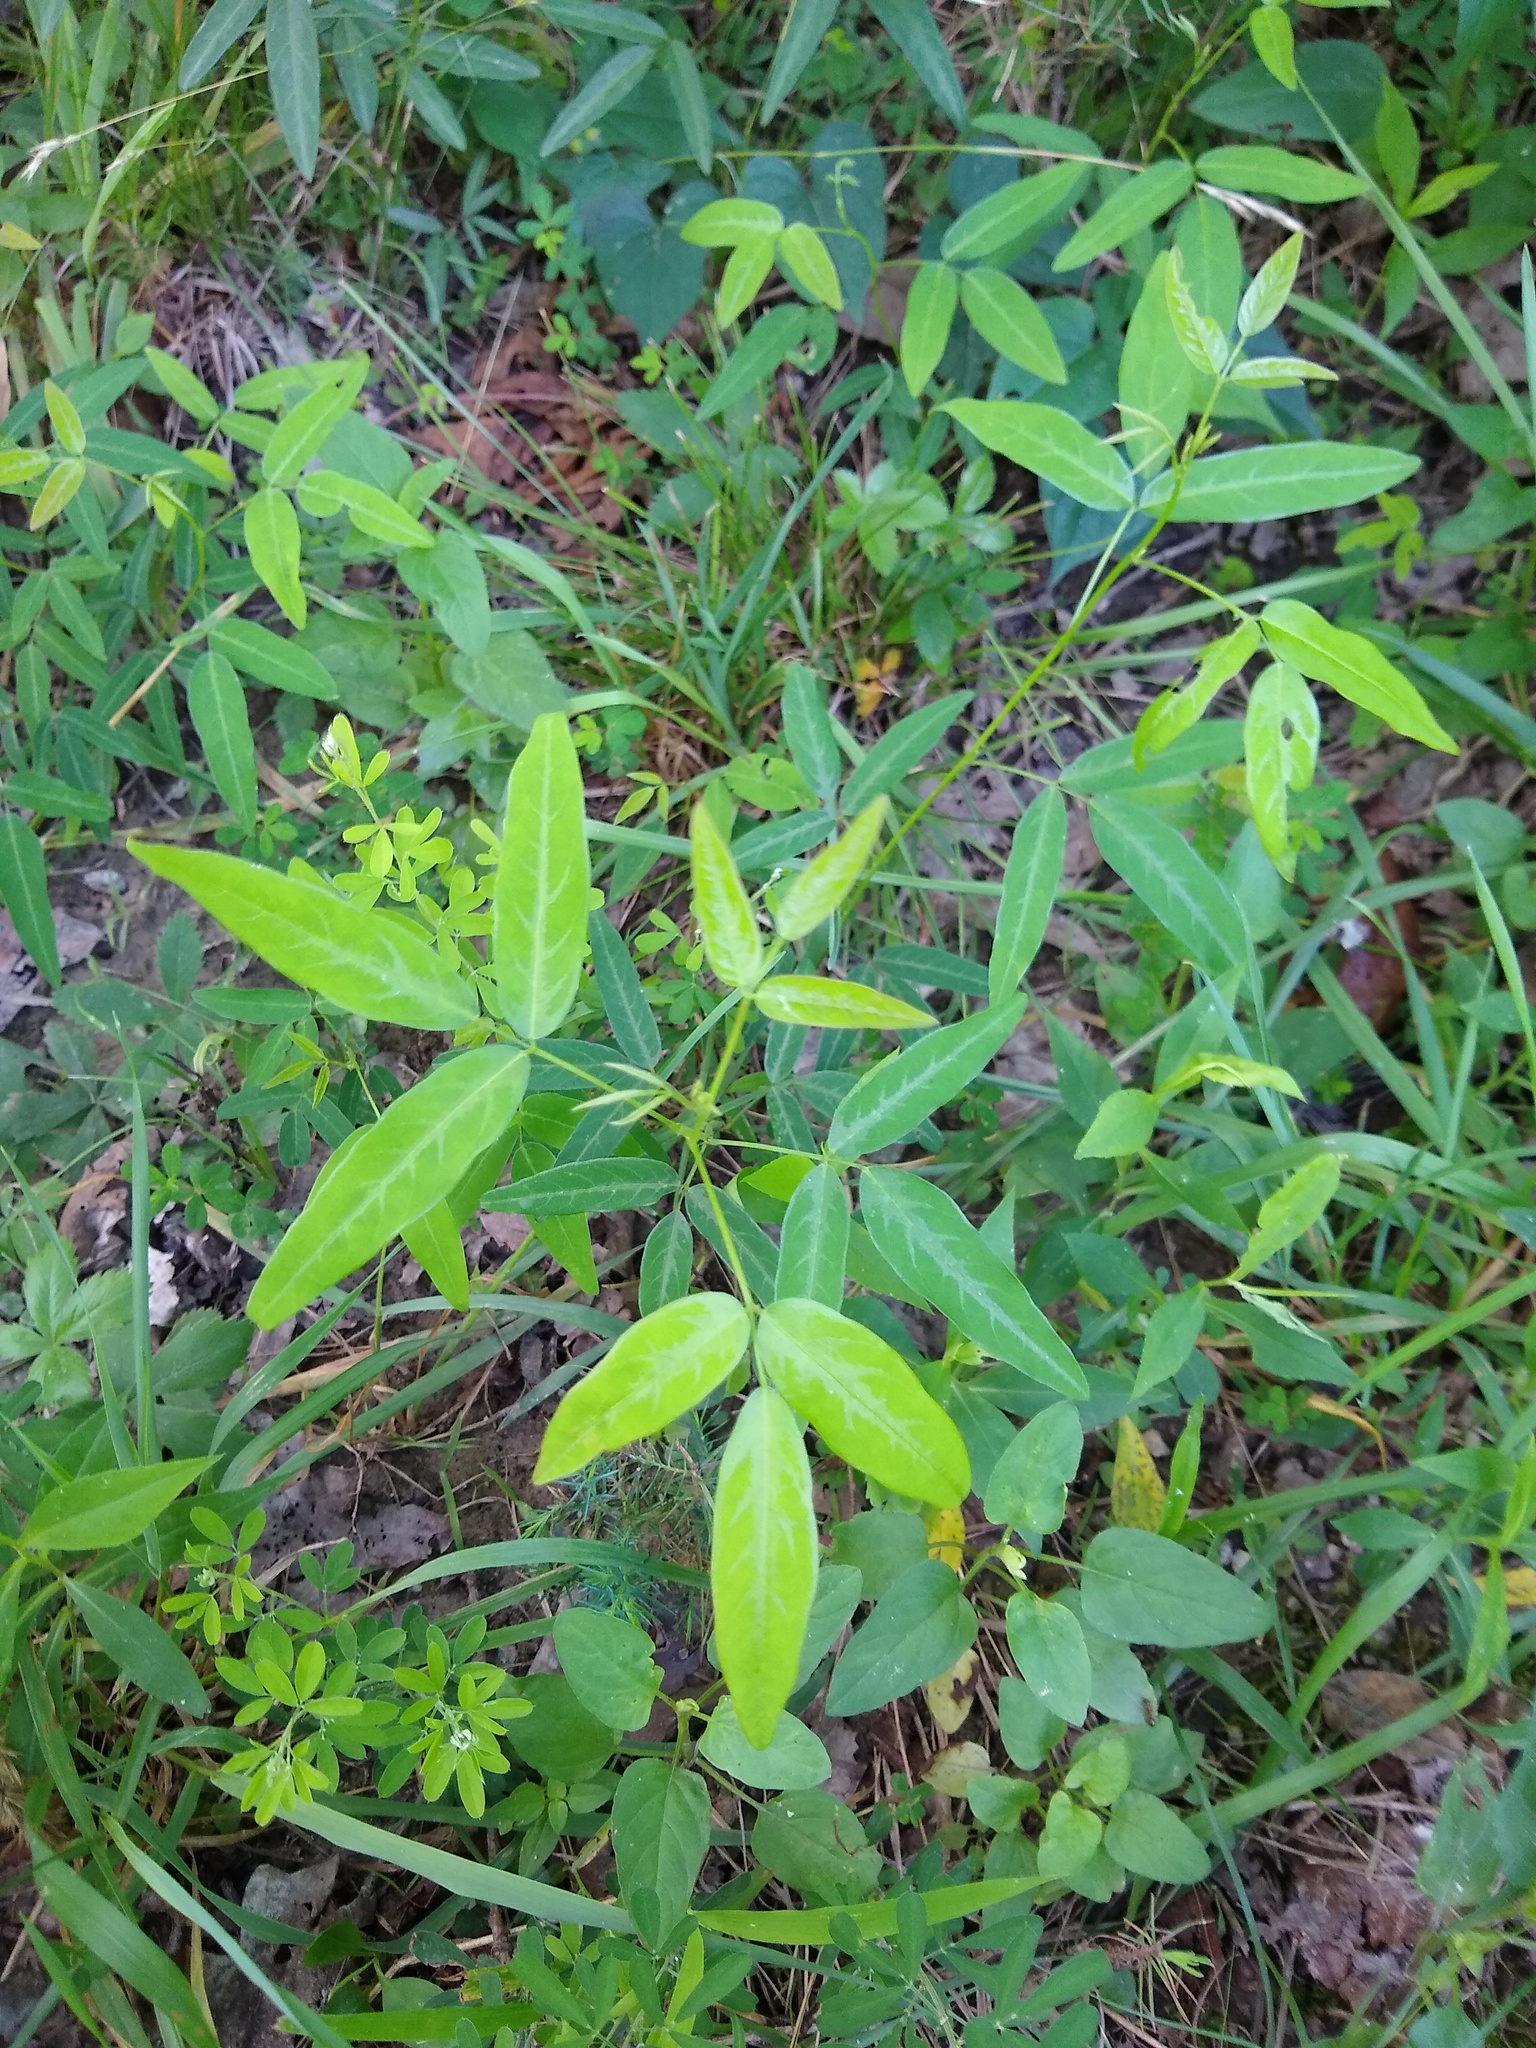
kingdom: Plantae
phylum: Tracheophyta
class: Magnoliopsida
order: Fabales
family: Fabaceae
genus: Desmodium
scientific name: Desmodium paniculatum
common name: Panicled tick-clover
